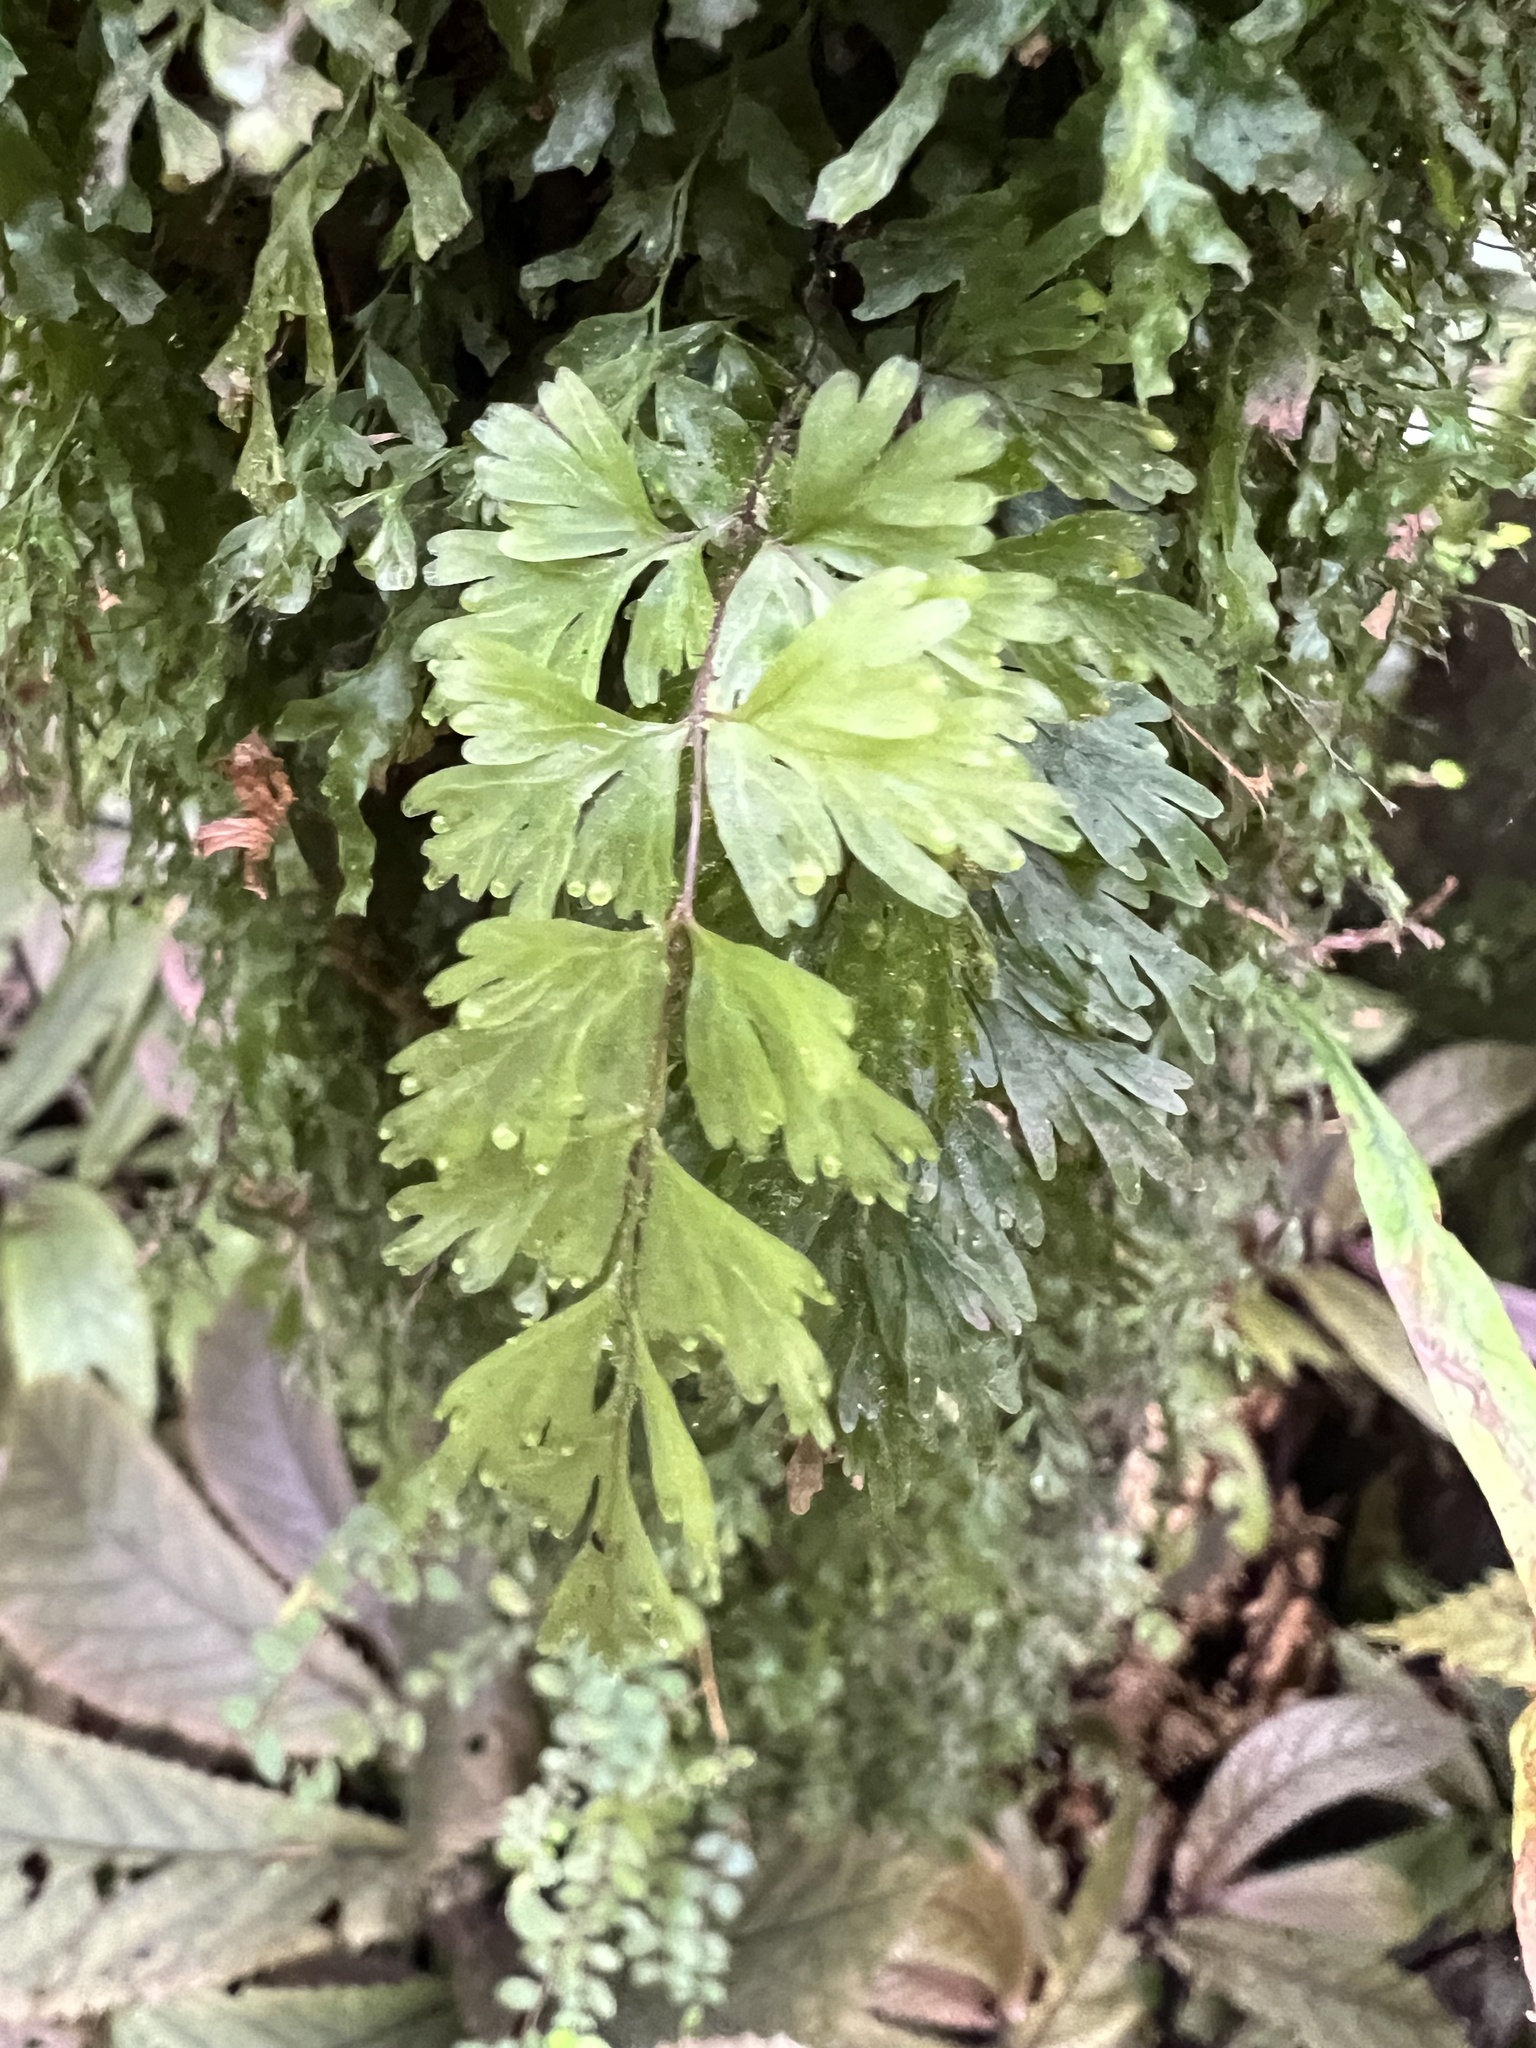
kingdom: Plantae
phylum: Tracheophyta
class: Polypodiopsida
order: Hymenophyllales
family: Hymenophyllaceae
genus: Hymenophyllum
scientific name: Hymenophyllum flabellatum
